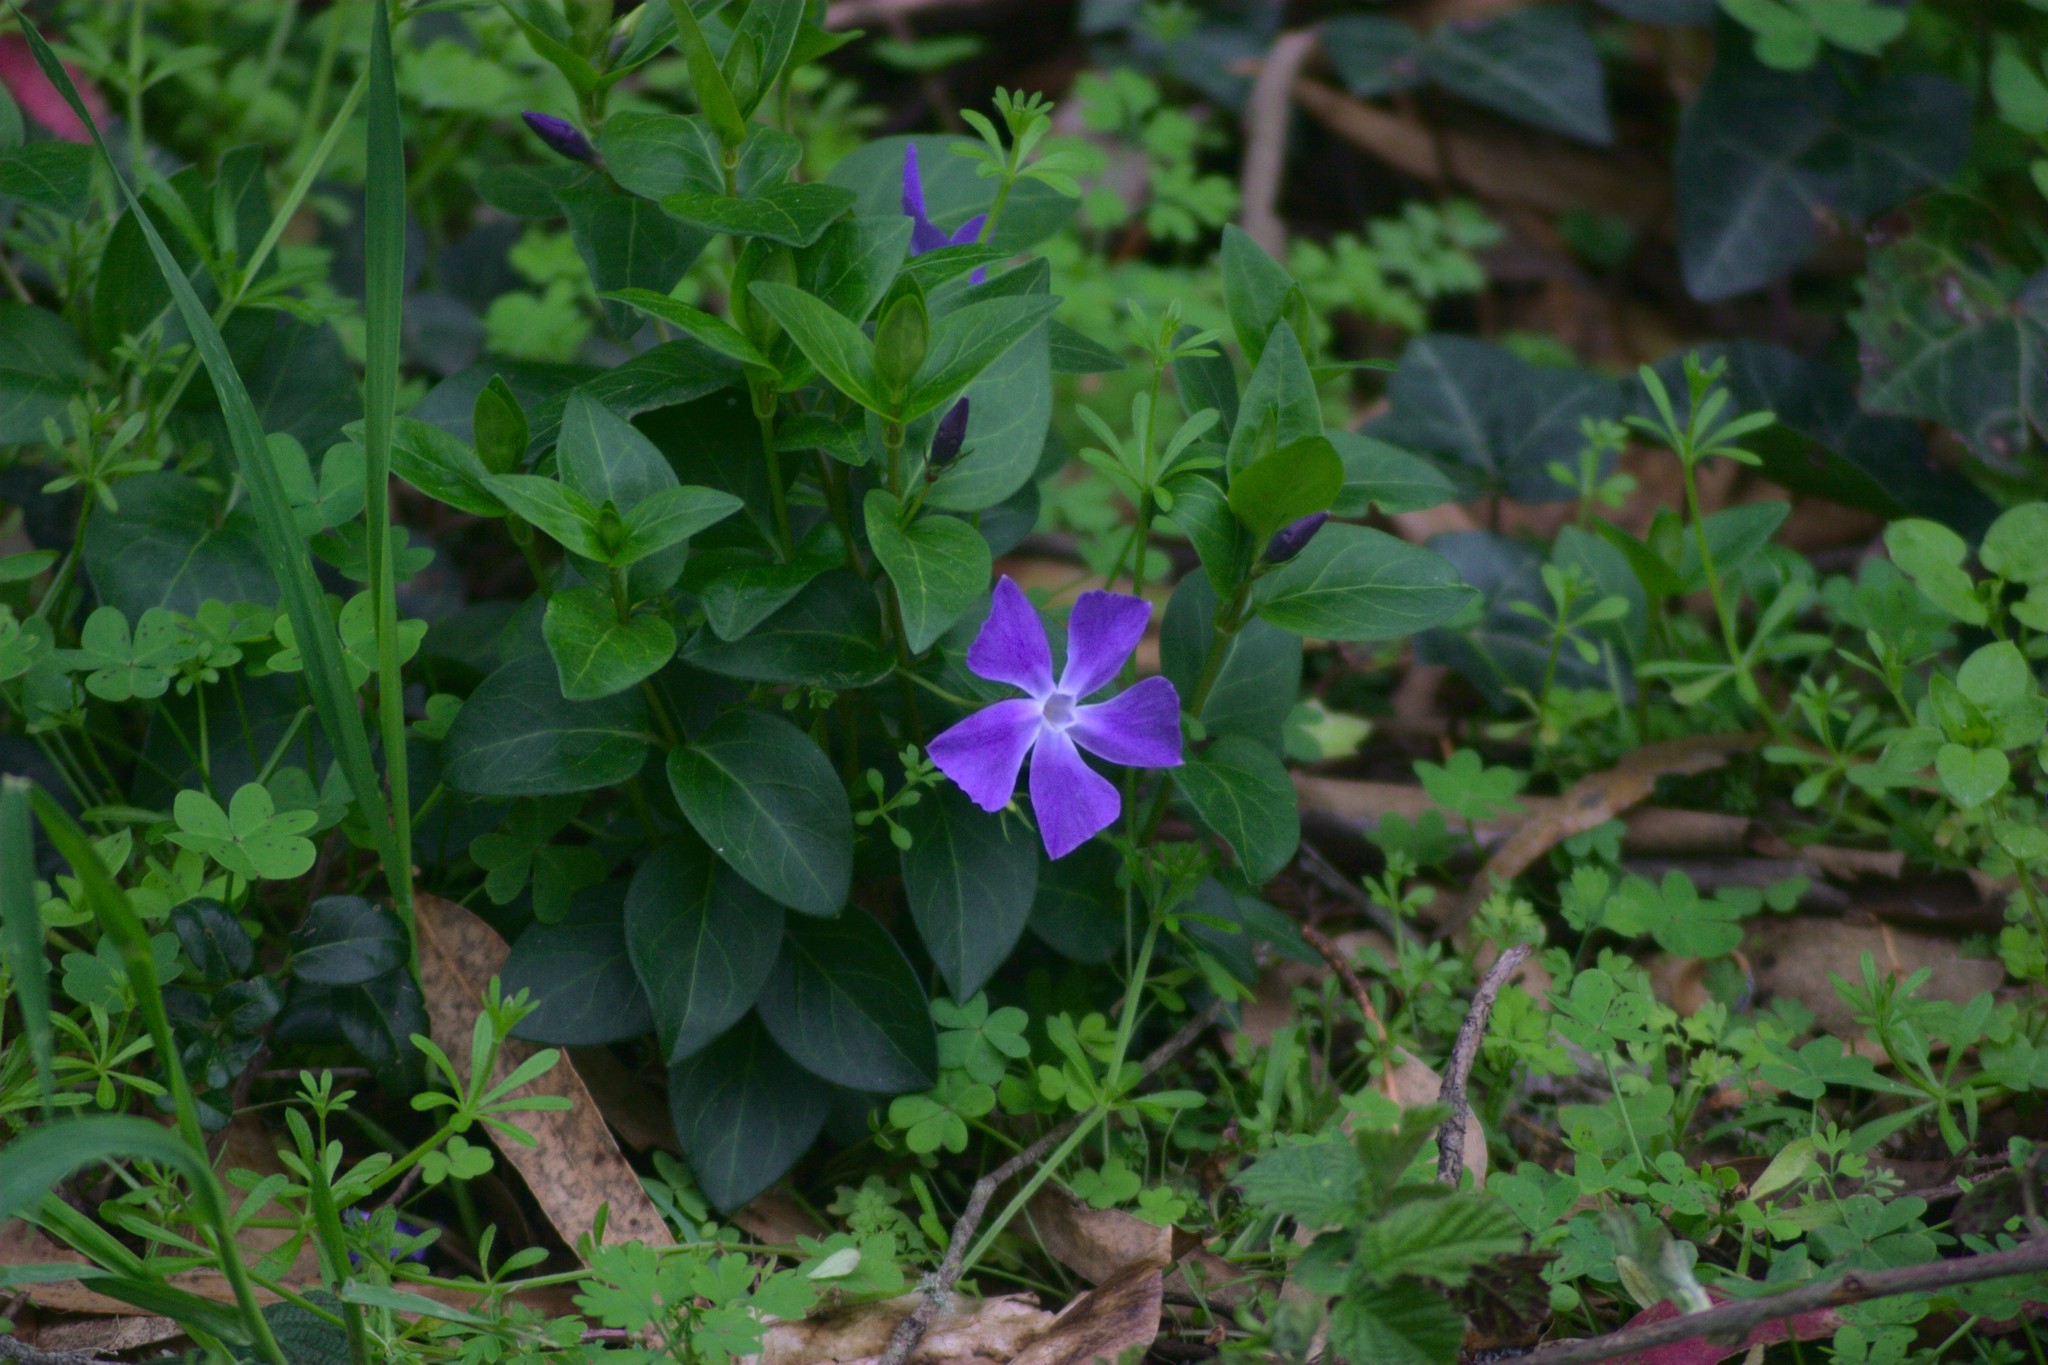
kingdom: Plantae
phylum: Tracheophyta
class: Magnoliopsida
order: Gentianales
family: Apocynaceae
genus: Vinca
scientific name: Vinca major
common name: Greater periwinkle
